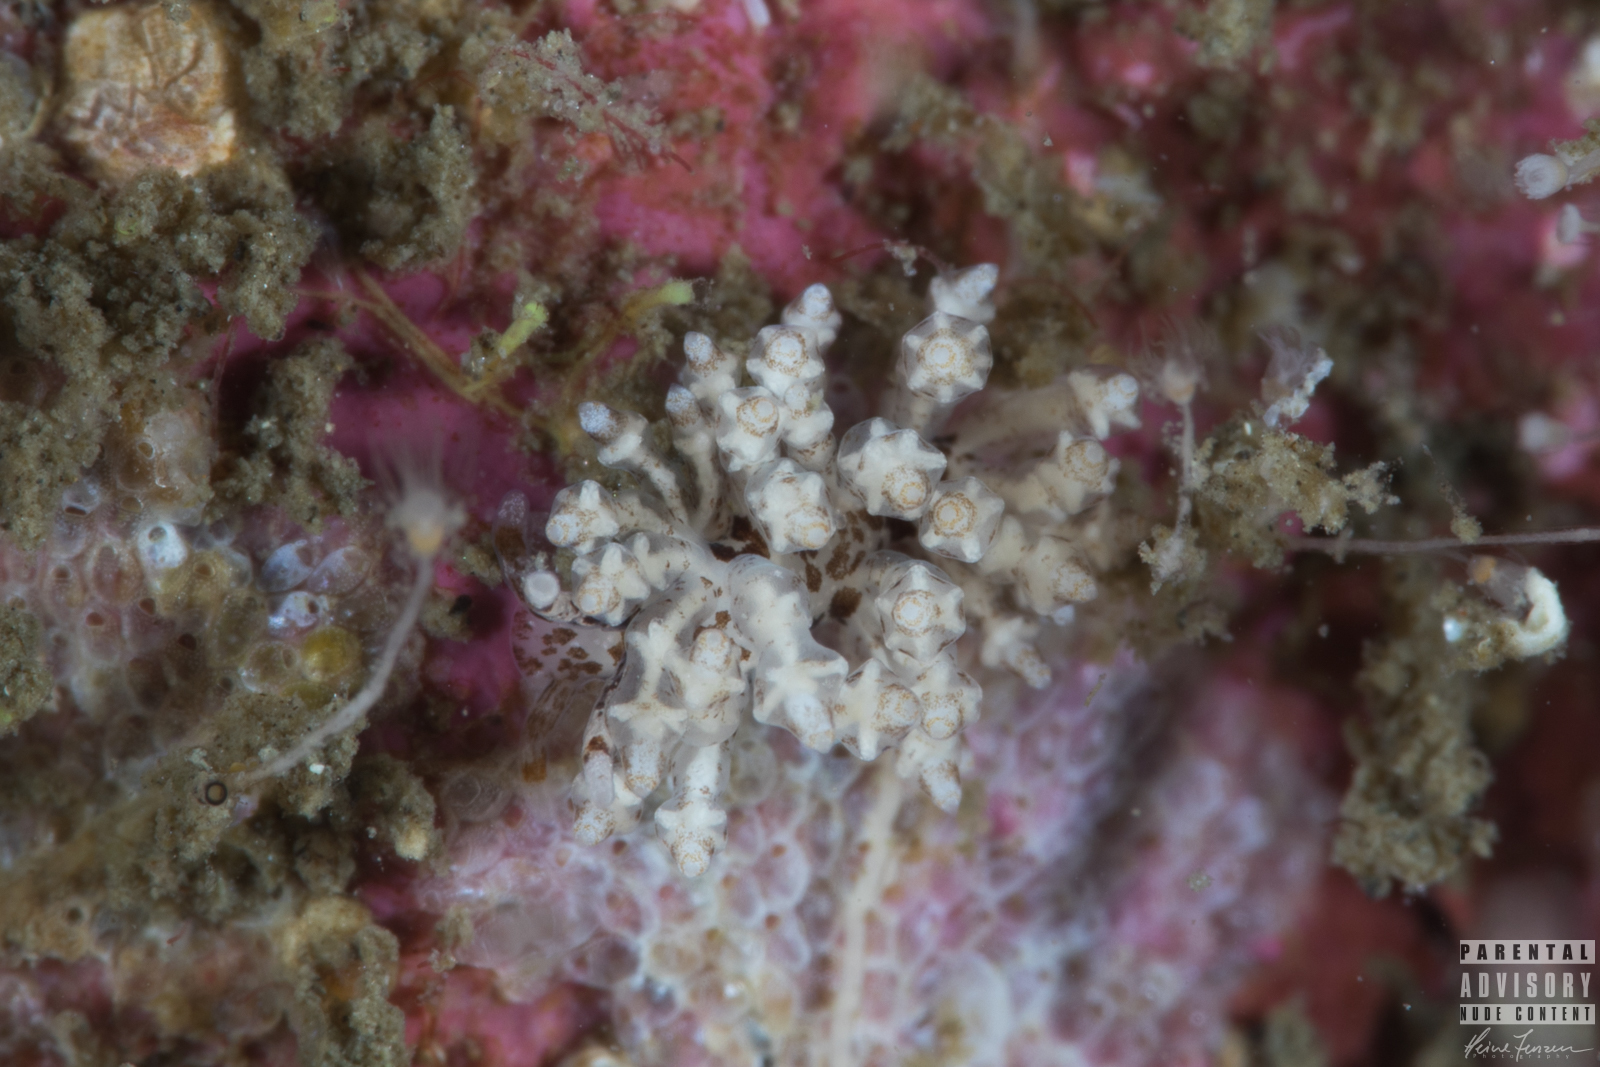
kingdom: Animalia
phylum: Mollusca
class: Gastropoda
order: Nudibranchia
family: Eubranchidae
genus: Capellinia
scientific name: Capellinia fustifera
